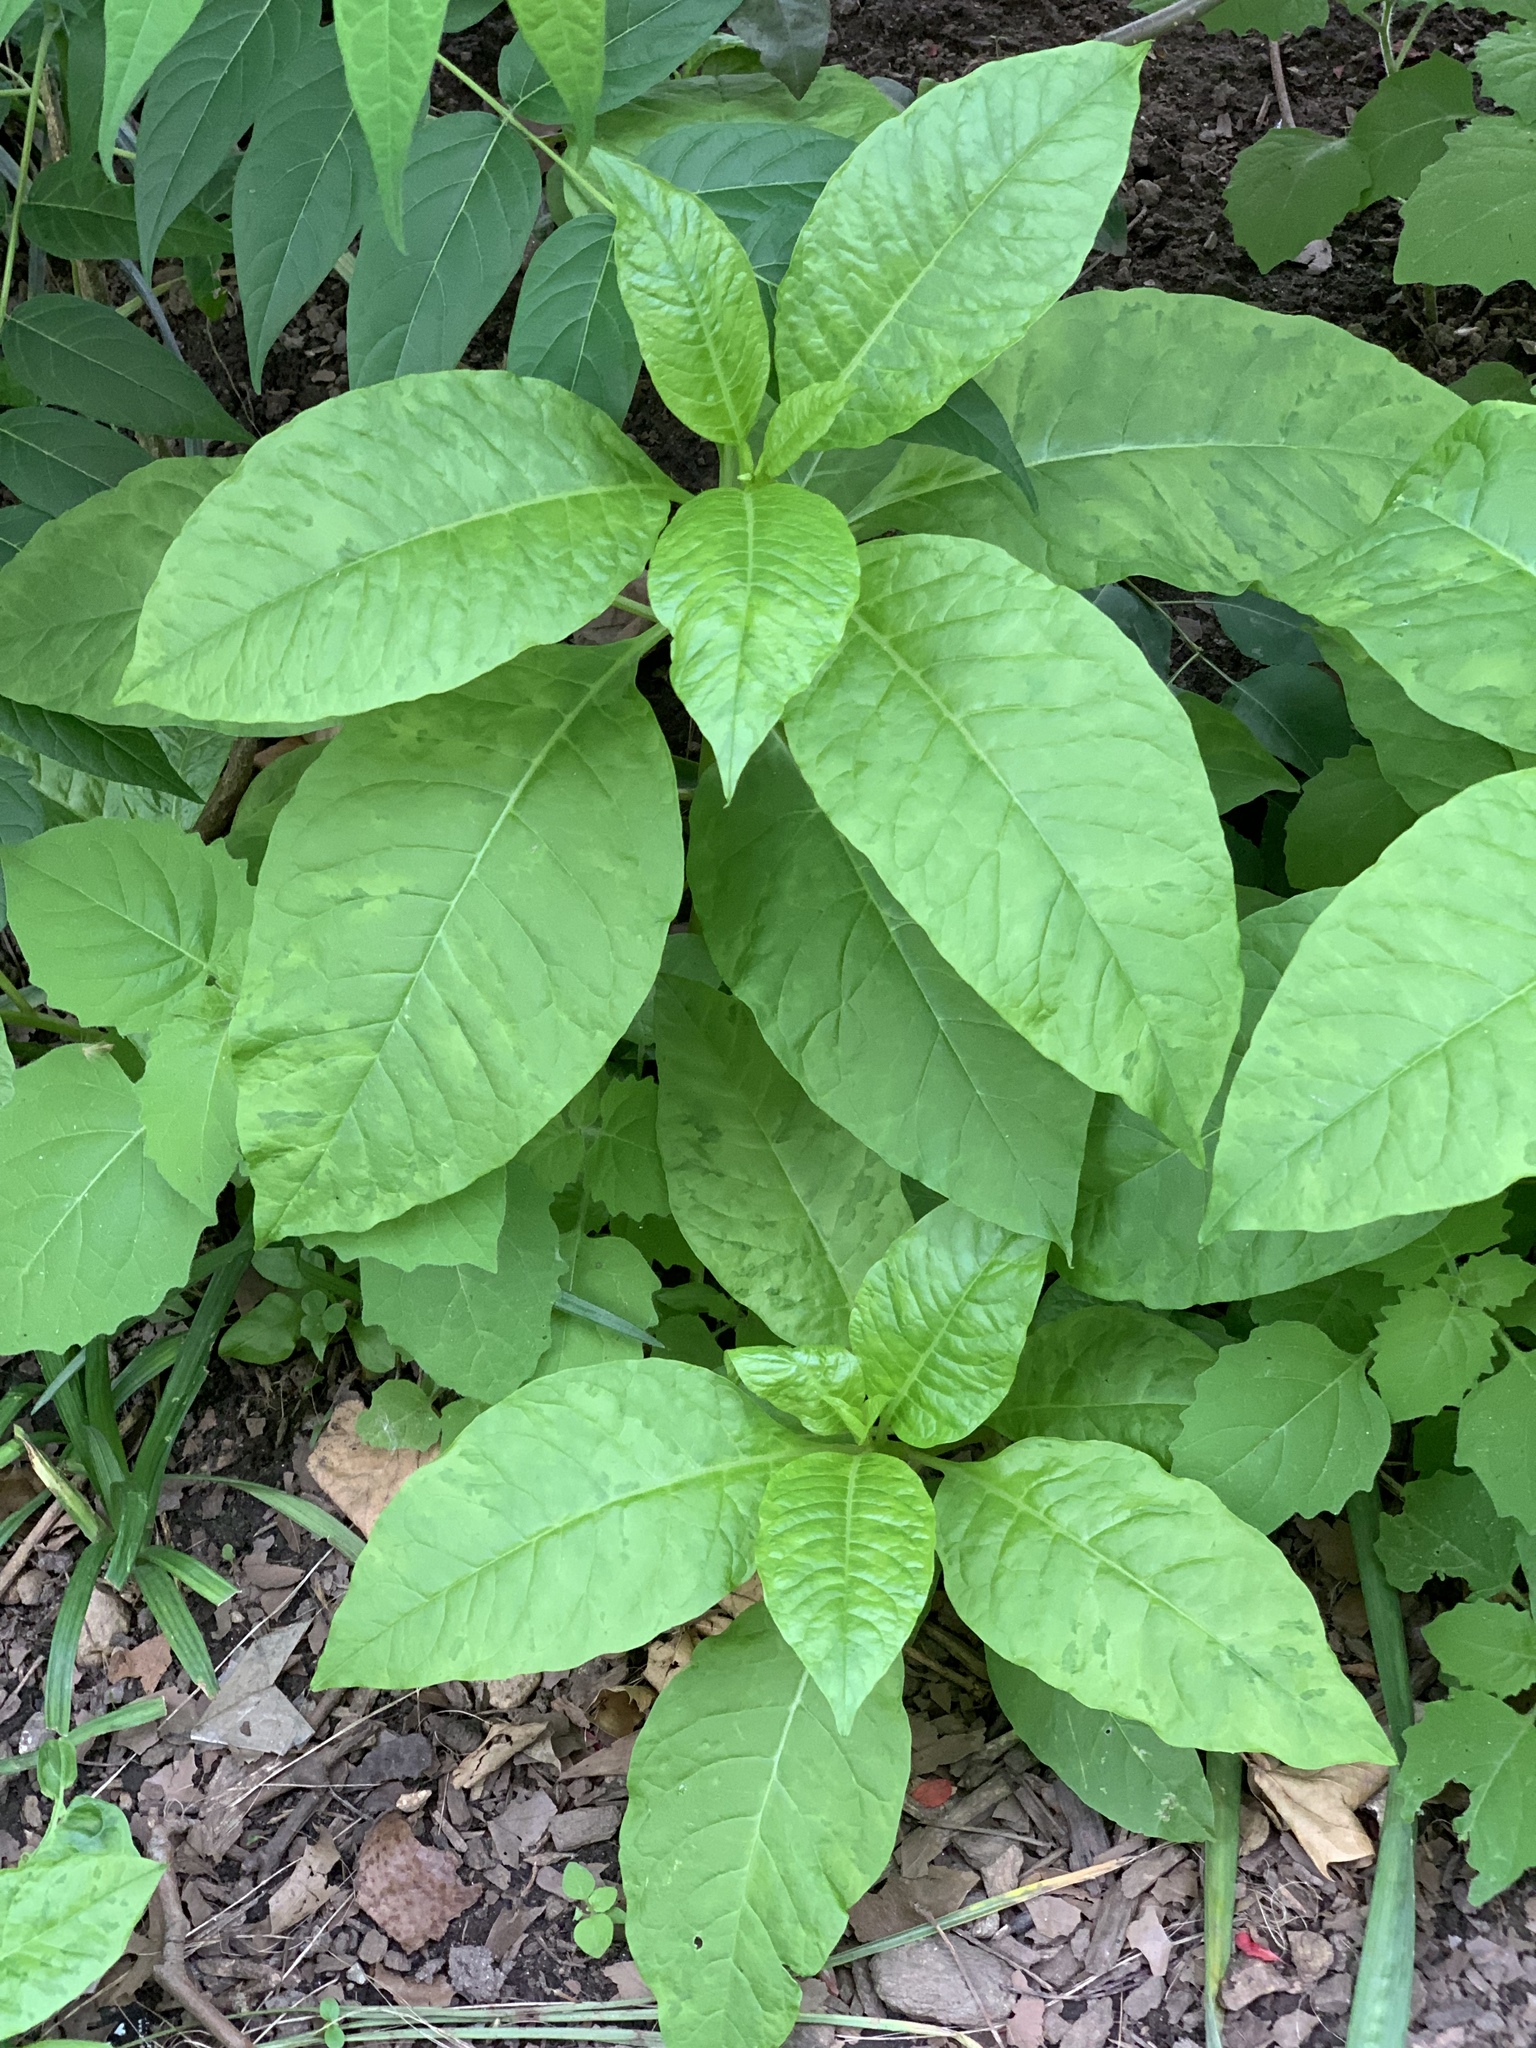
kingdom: Plantae
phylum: Tracheophyta
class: Magnoliopsida
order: Caryophyllales
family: Phytolaccaceae
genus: Phytolacca
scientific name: Phytolacca americana
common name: American pokeweed
